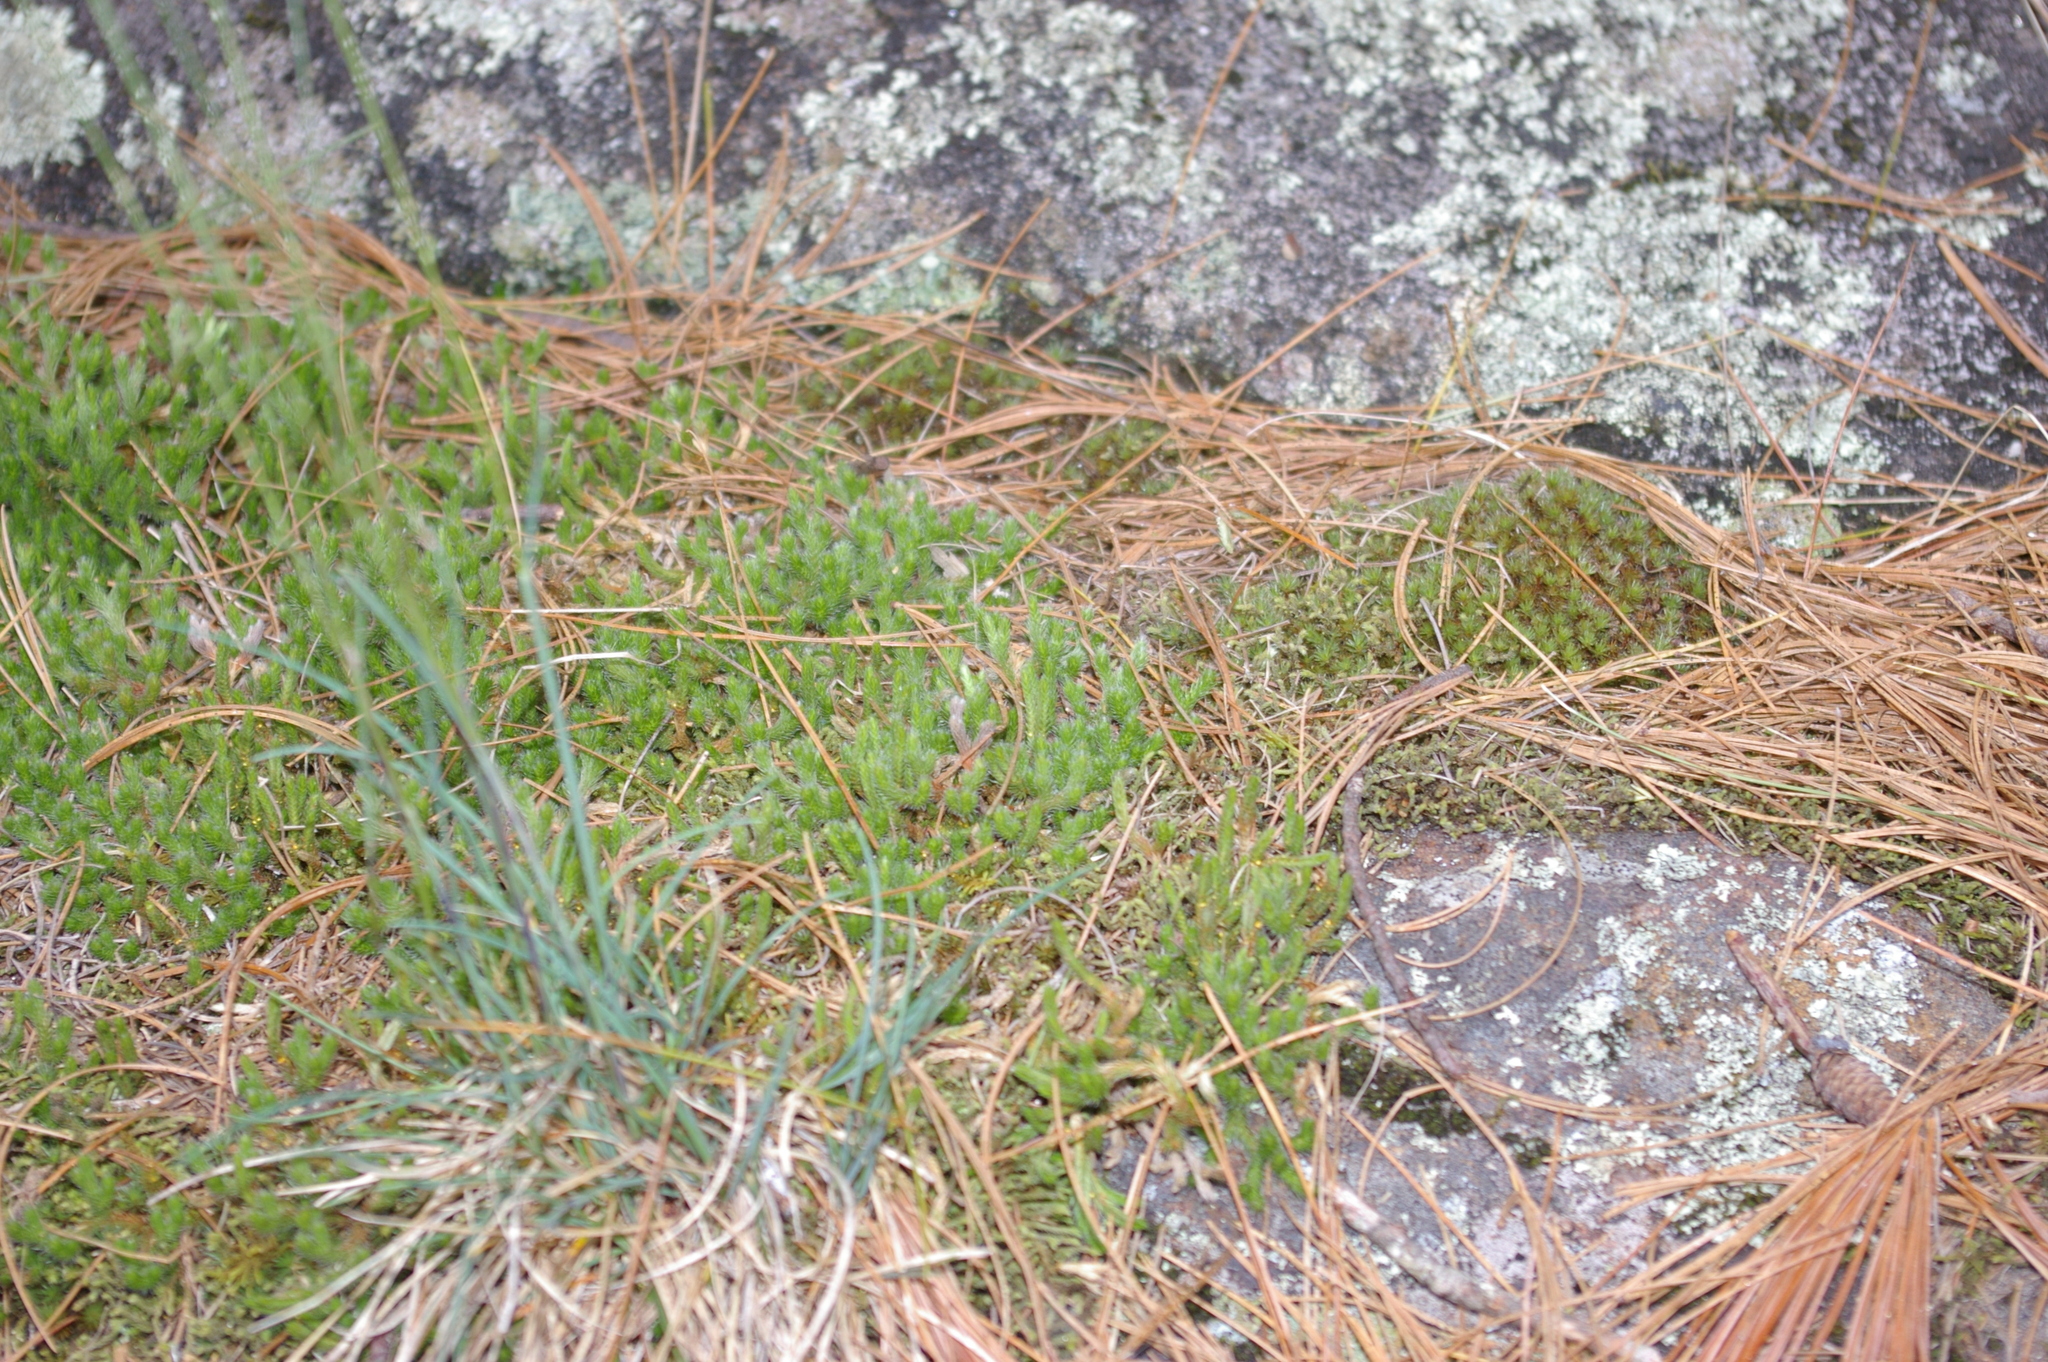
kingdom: Plantae
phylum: Tracheophyta
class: Lycopodiopsida
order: Selaginellales
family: Selaginellaceae
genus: Selaginella
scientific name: Selaginella rupestris
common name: Dwarf spikemoss
